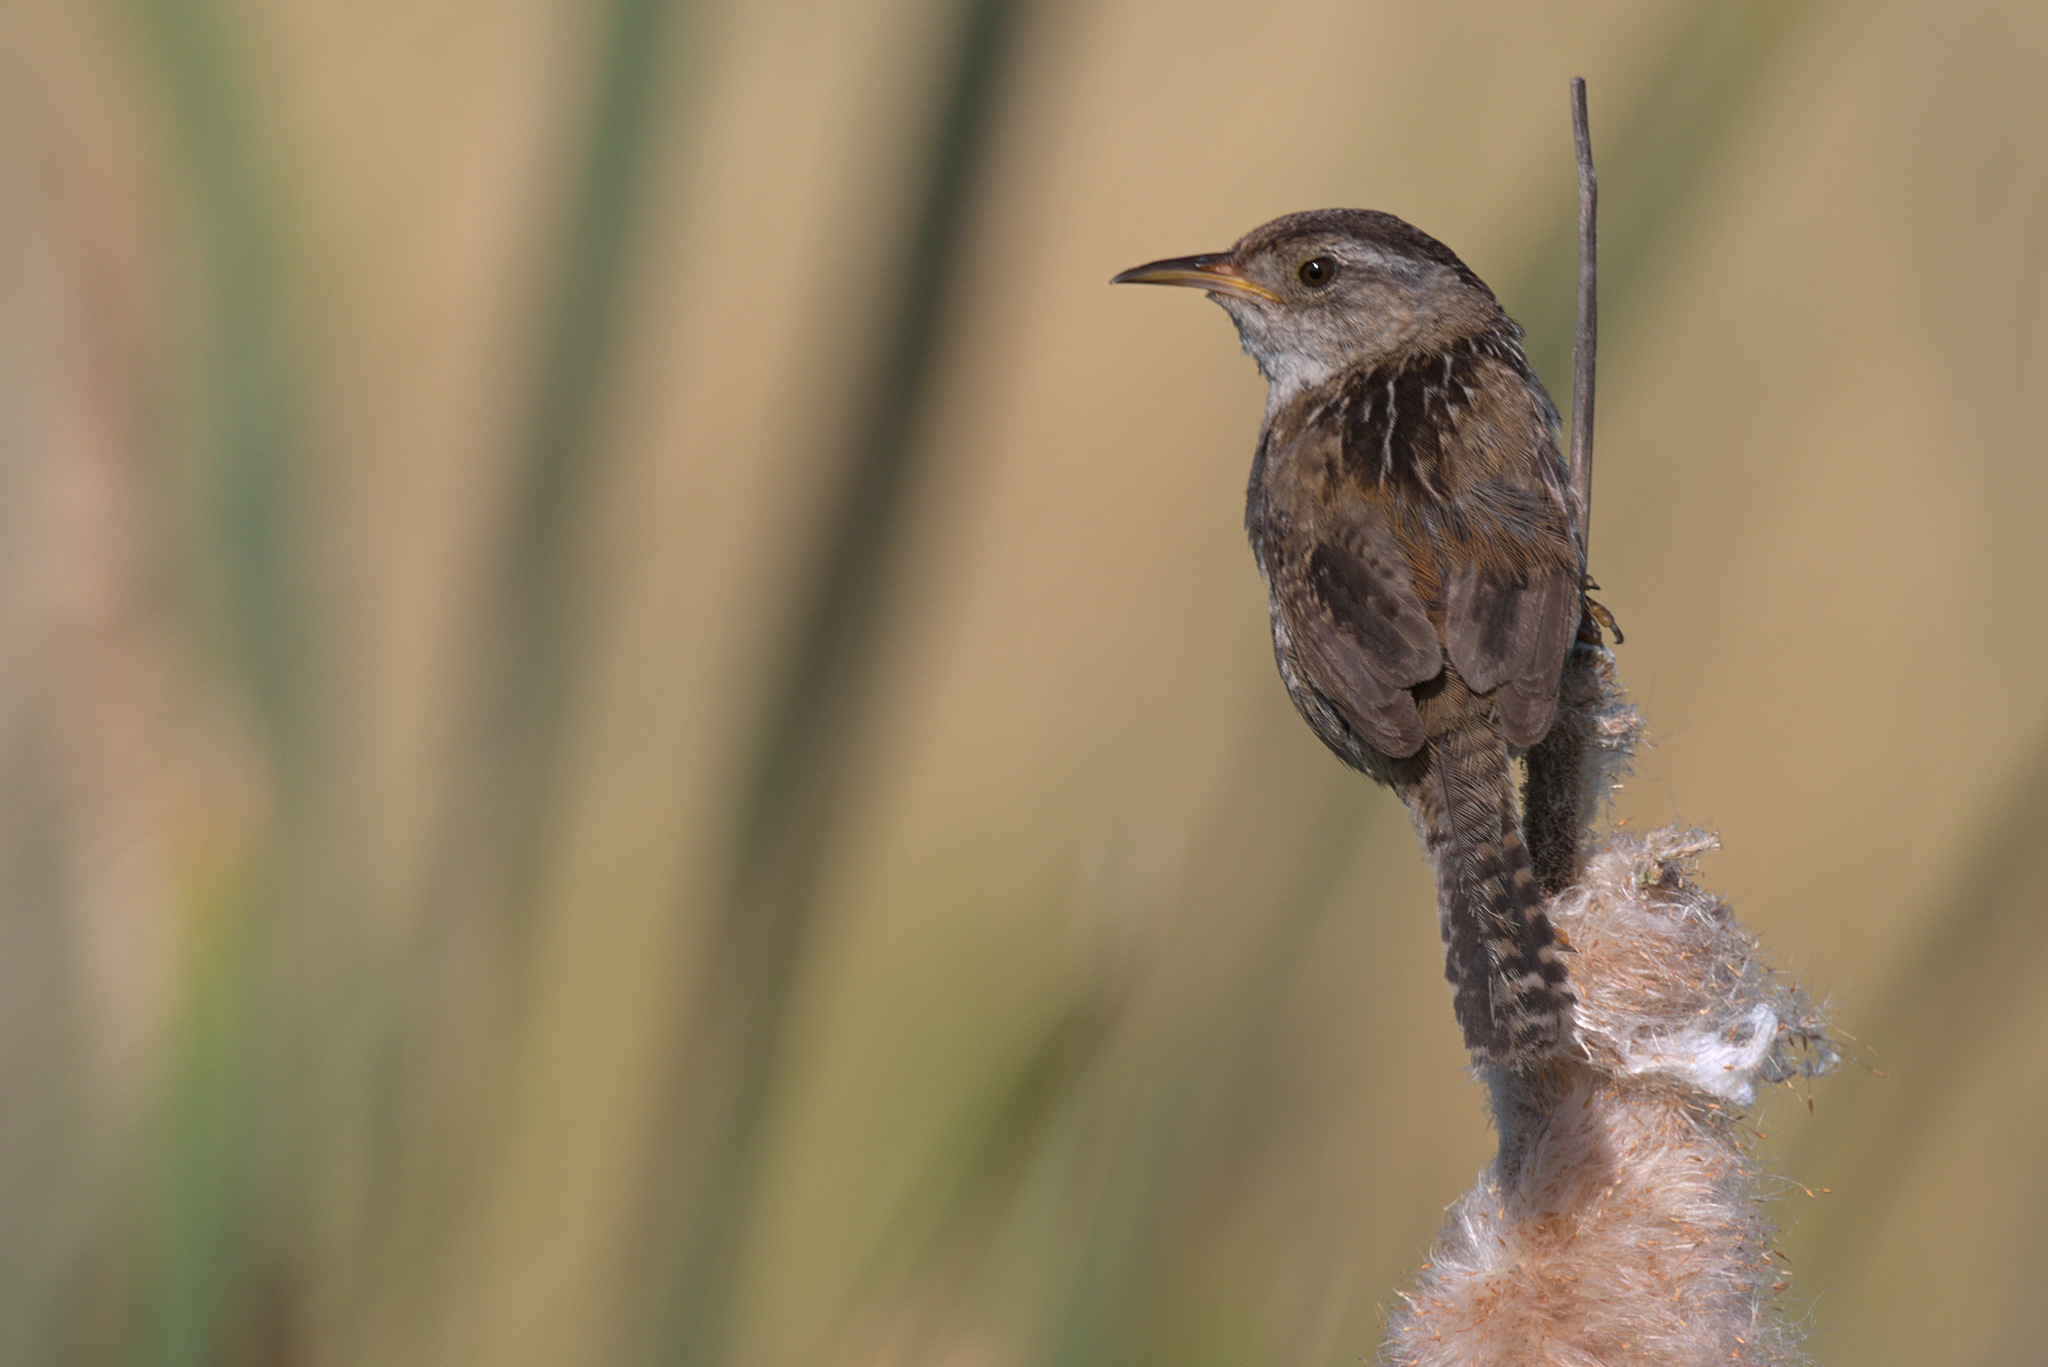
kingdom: Animalia
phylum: Chordata
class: Aves
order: Passeriformes
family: Troglodytidae
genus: Cistothorus
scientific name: Cistothorus palustris
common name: Marsh wren
